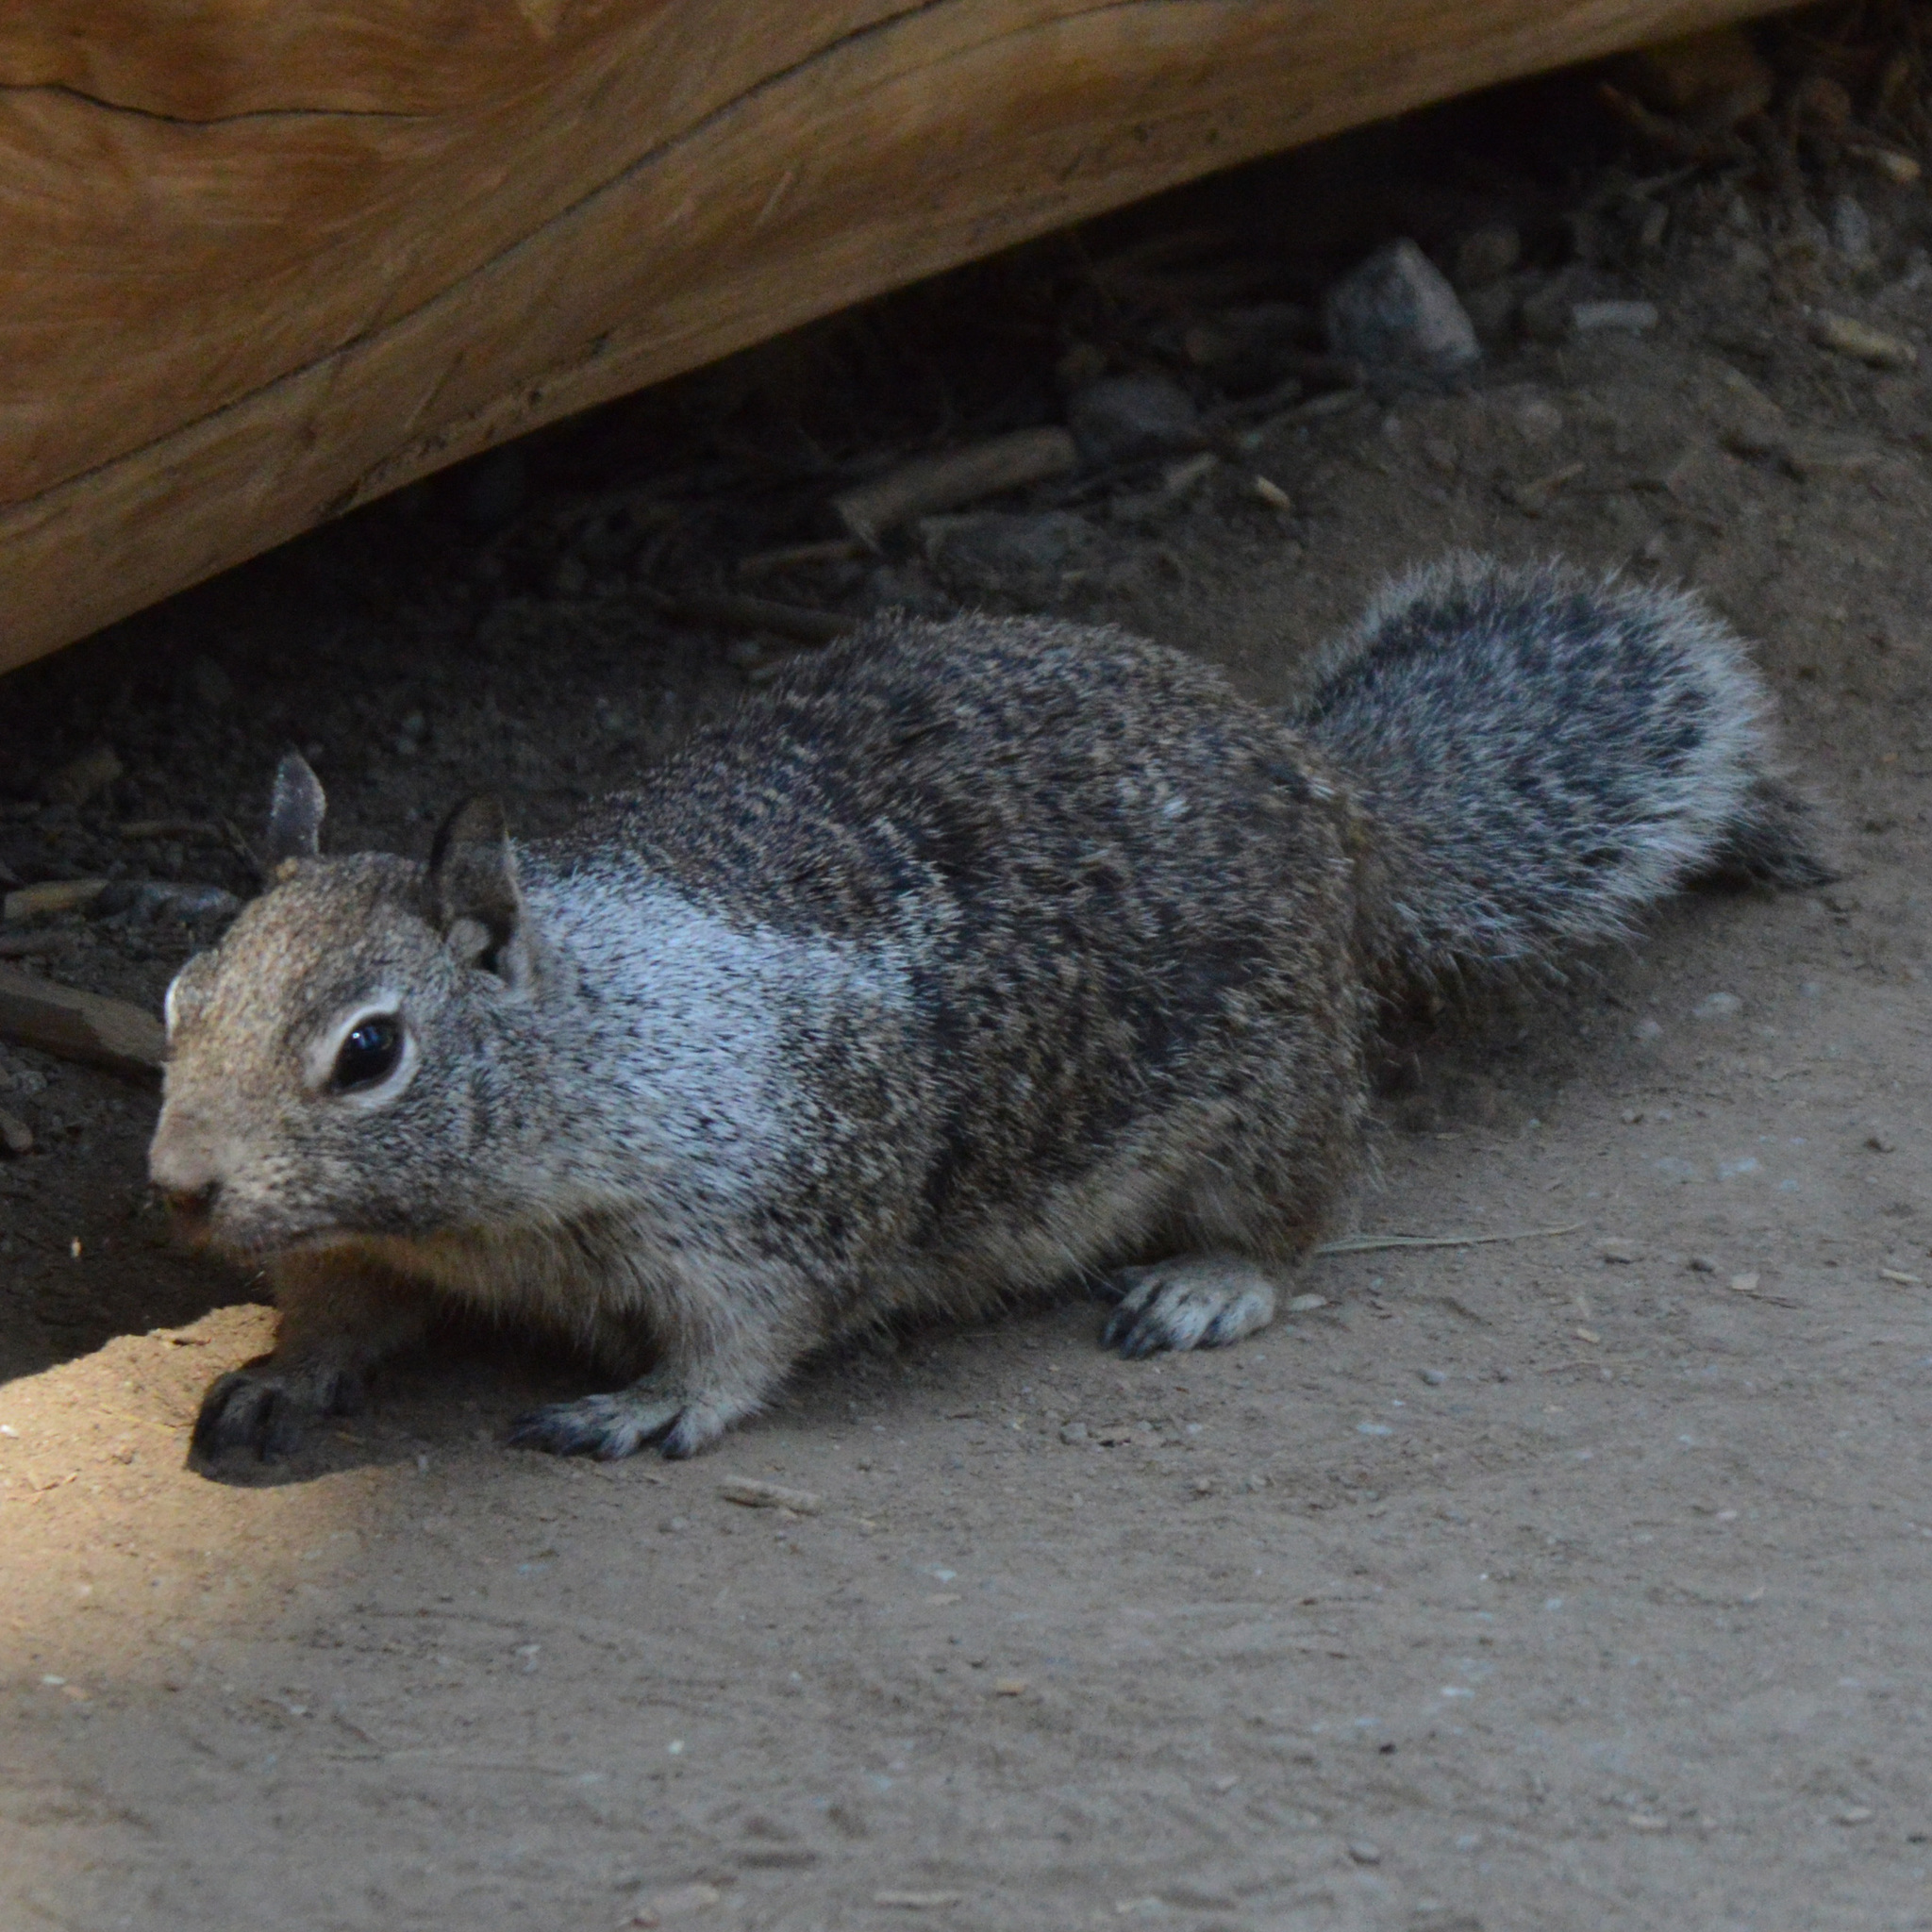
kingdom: Animalia
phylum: Chordata
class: Mammalia
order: Rodentia
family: Sciuridae
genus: Otospermophilus
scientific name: Otospermophilus beecheyi
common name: California ground squirrel
